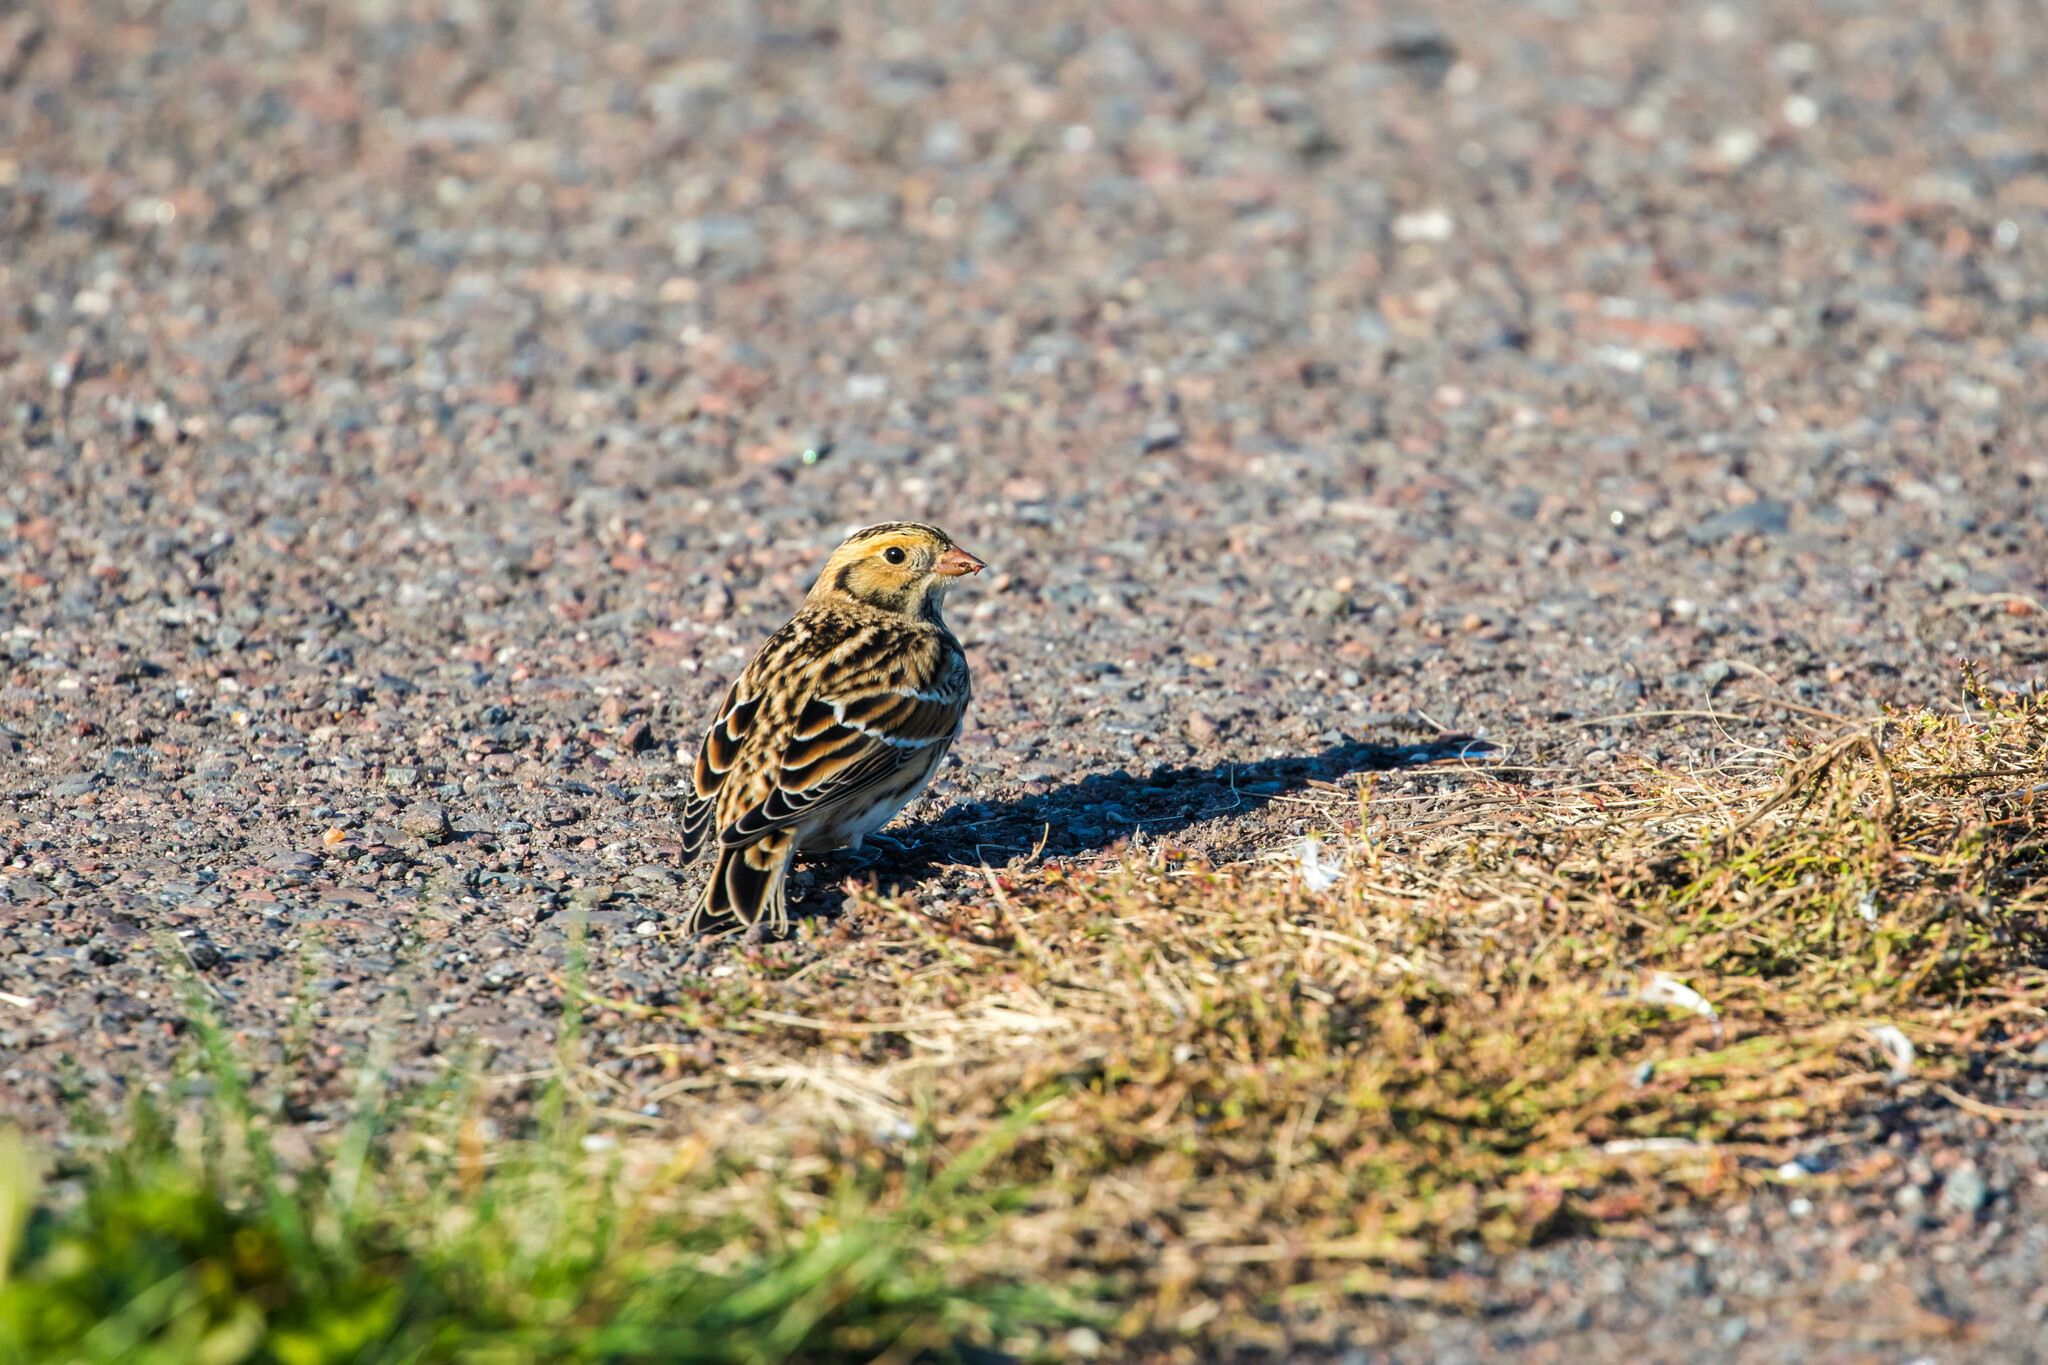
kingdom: Animalia
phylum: Chordata
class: Aves
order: Passeriformes
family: Calcariidae
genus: Calcarius
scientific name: Calcarius lapponicus
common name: Lapland longspur
